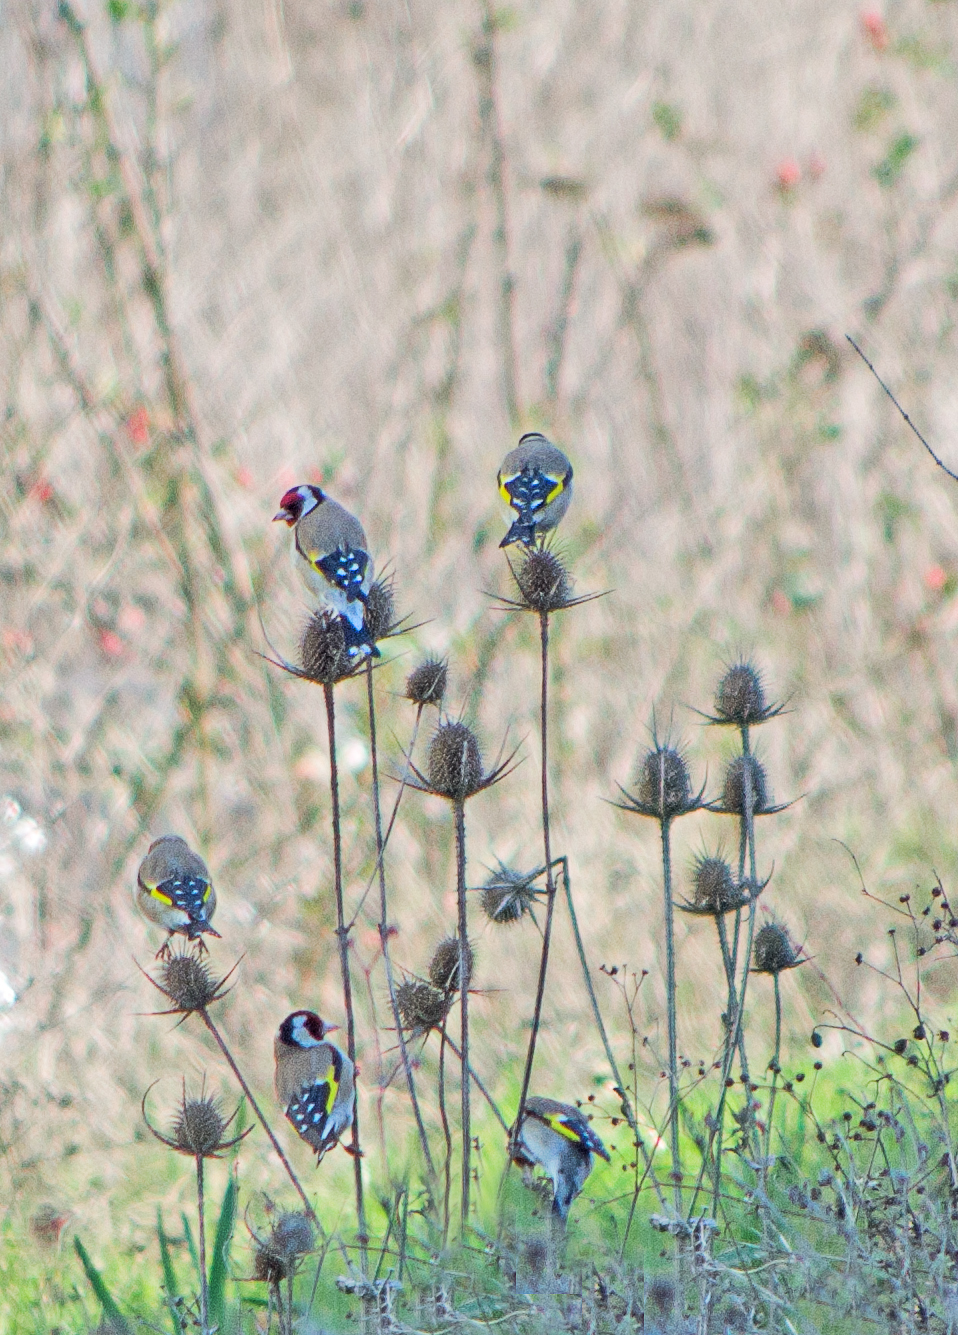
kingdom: Animalia
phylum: Chordata
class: Aves
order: Passeriformes
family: Fringillidae
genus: Carduelis
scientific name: Carduelis carduelis
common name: European goldfinch
